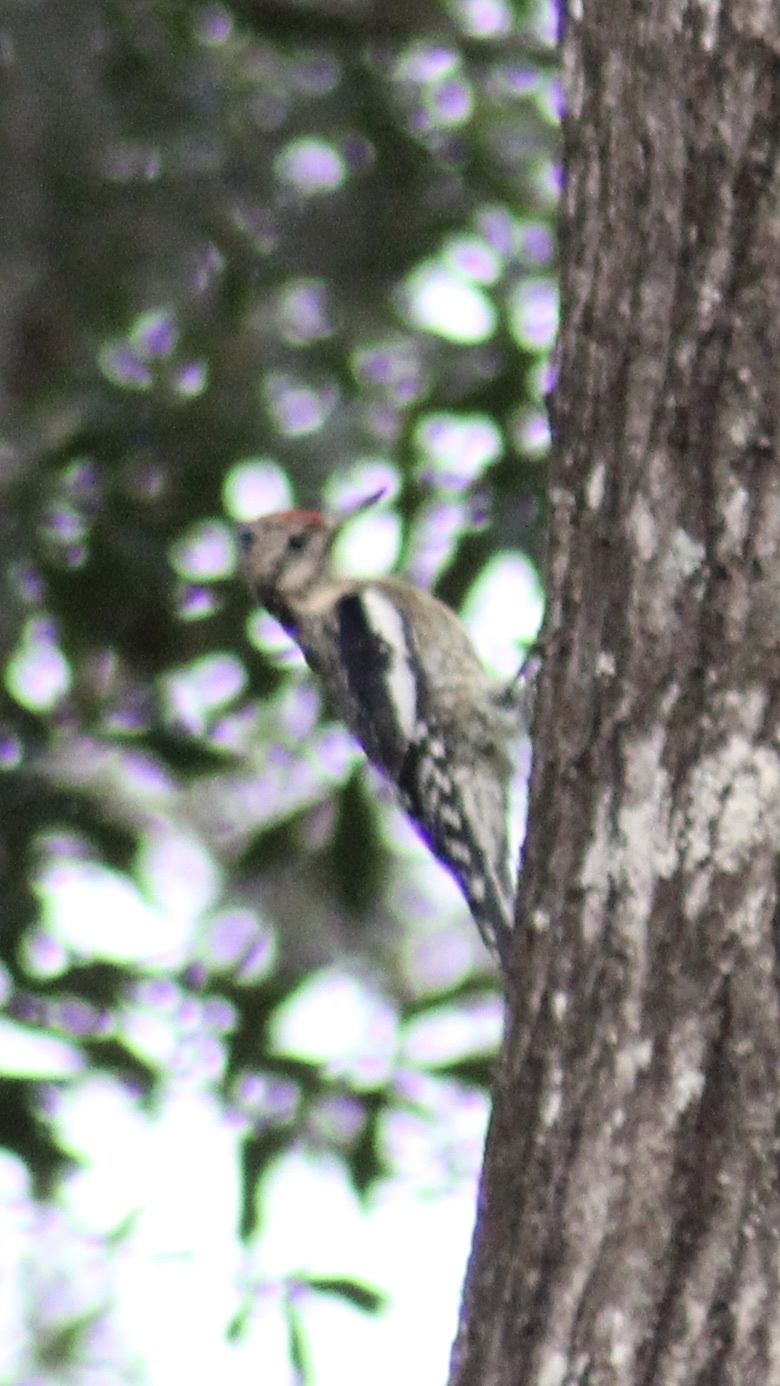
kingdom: Animalia
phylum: Chordata
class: Aves
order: Piciformes
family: Picidae
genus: Sphyrapicus
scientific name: Sphyrapicus varius
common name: Yellow-bellied sapsucker
